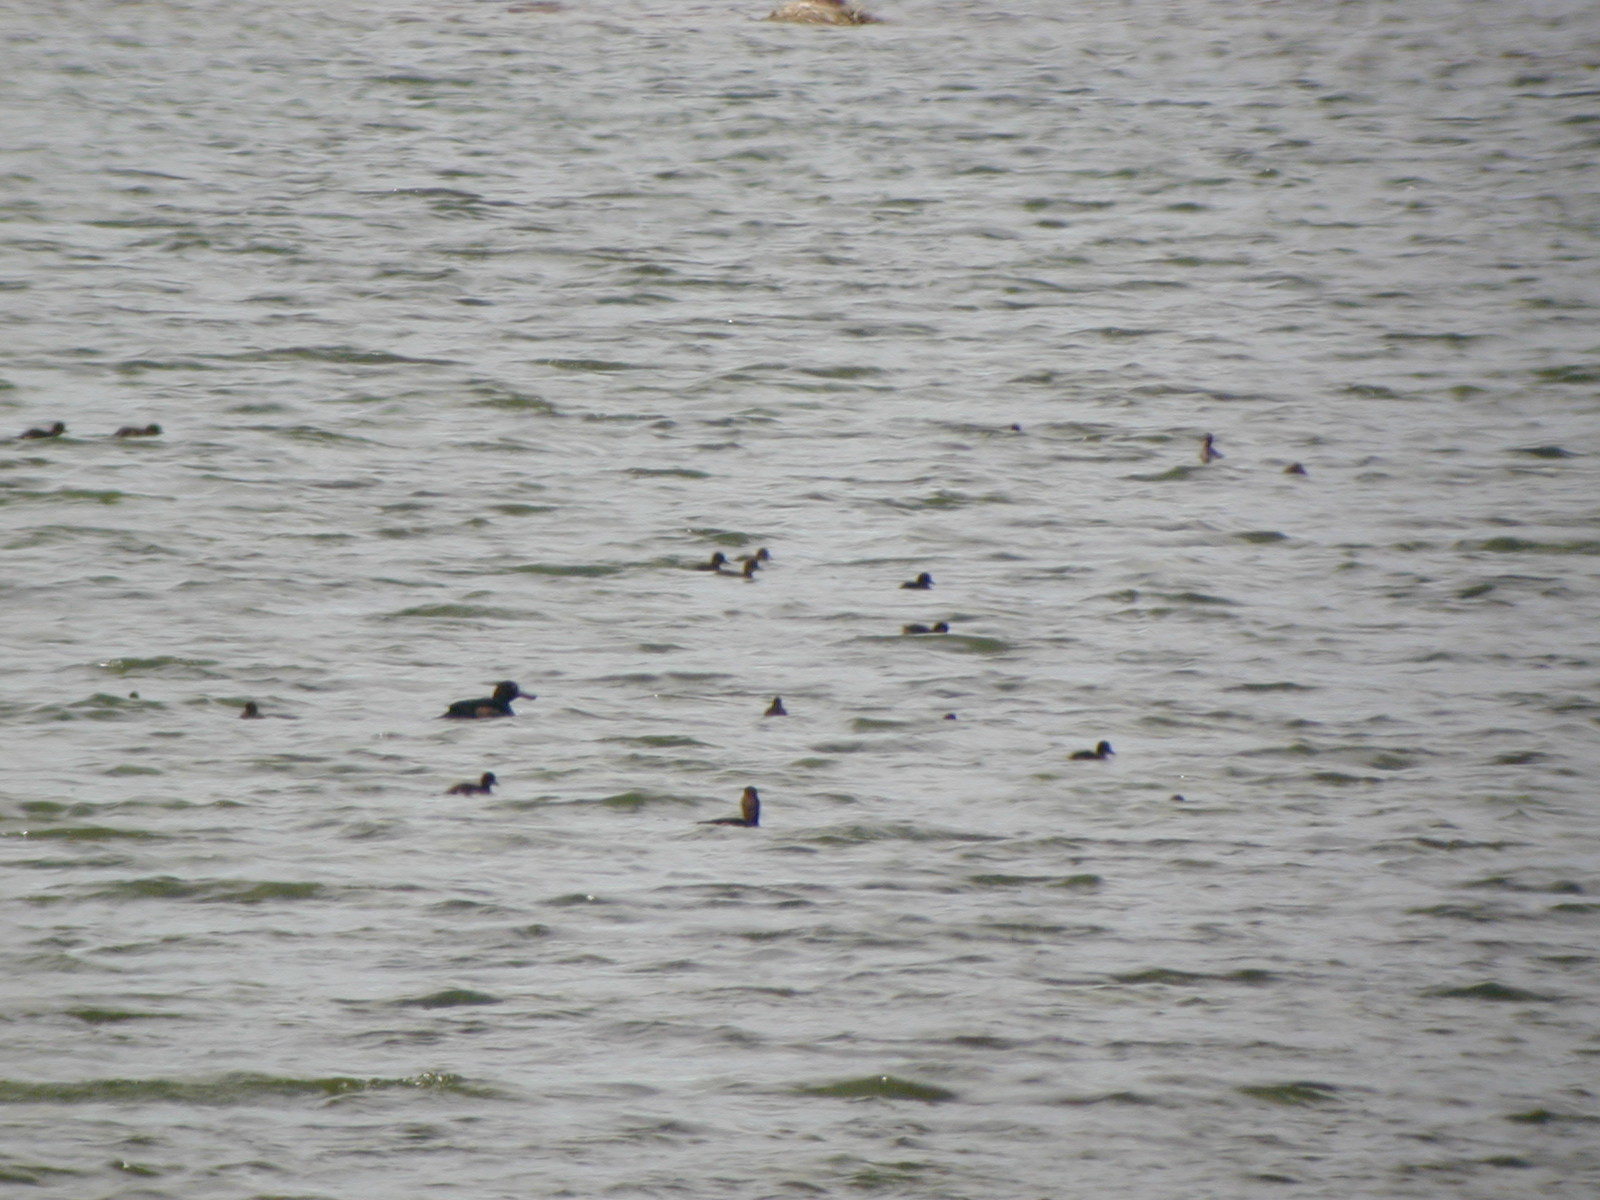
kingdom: Animalia
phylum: Chordata
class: Aves
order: Anseriformes
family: Anatidae
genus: Aythya
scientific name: Aythya fuligula
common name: Tufted duck
